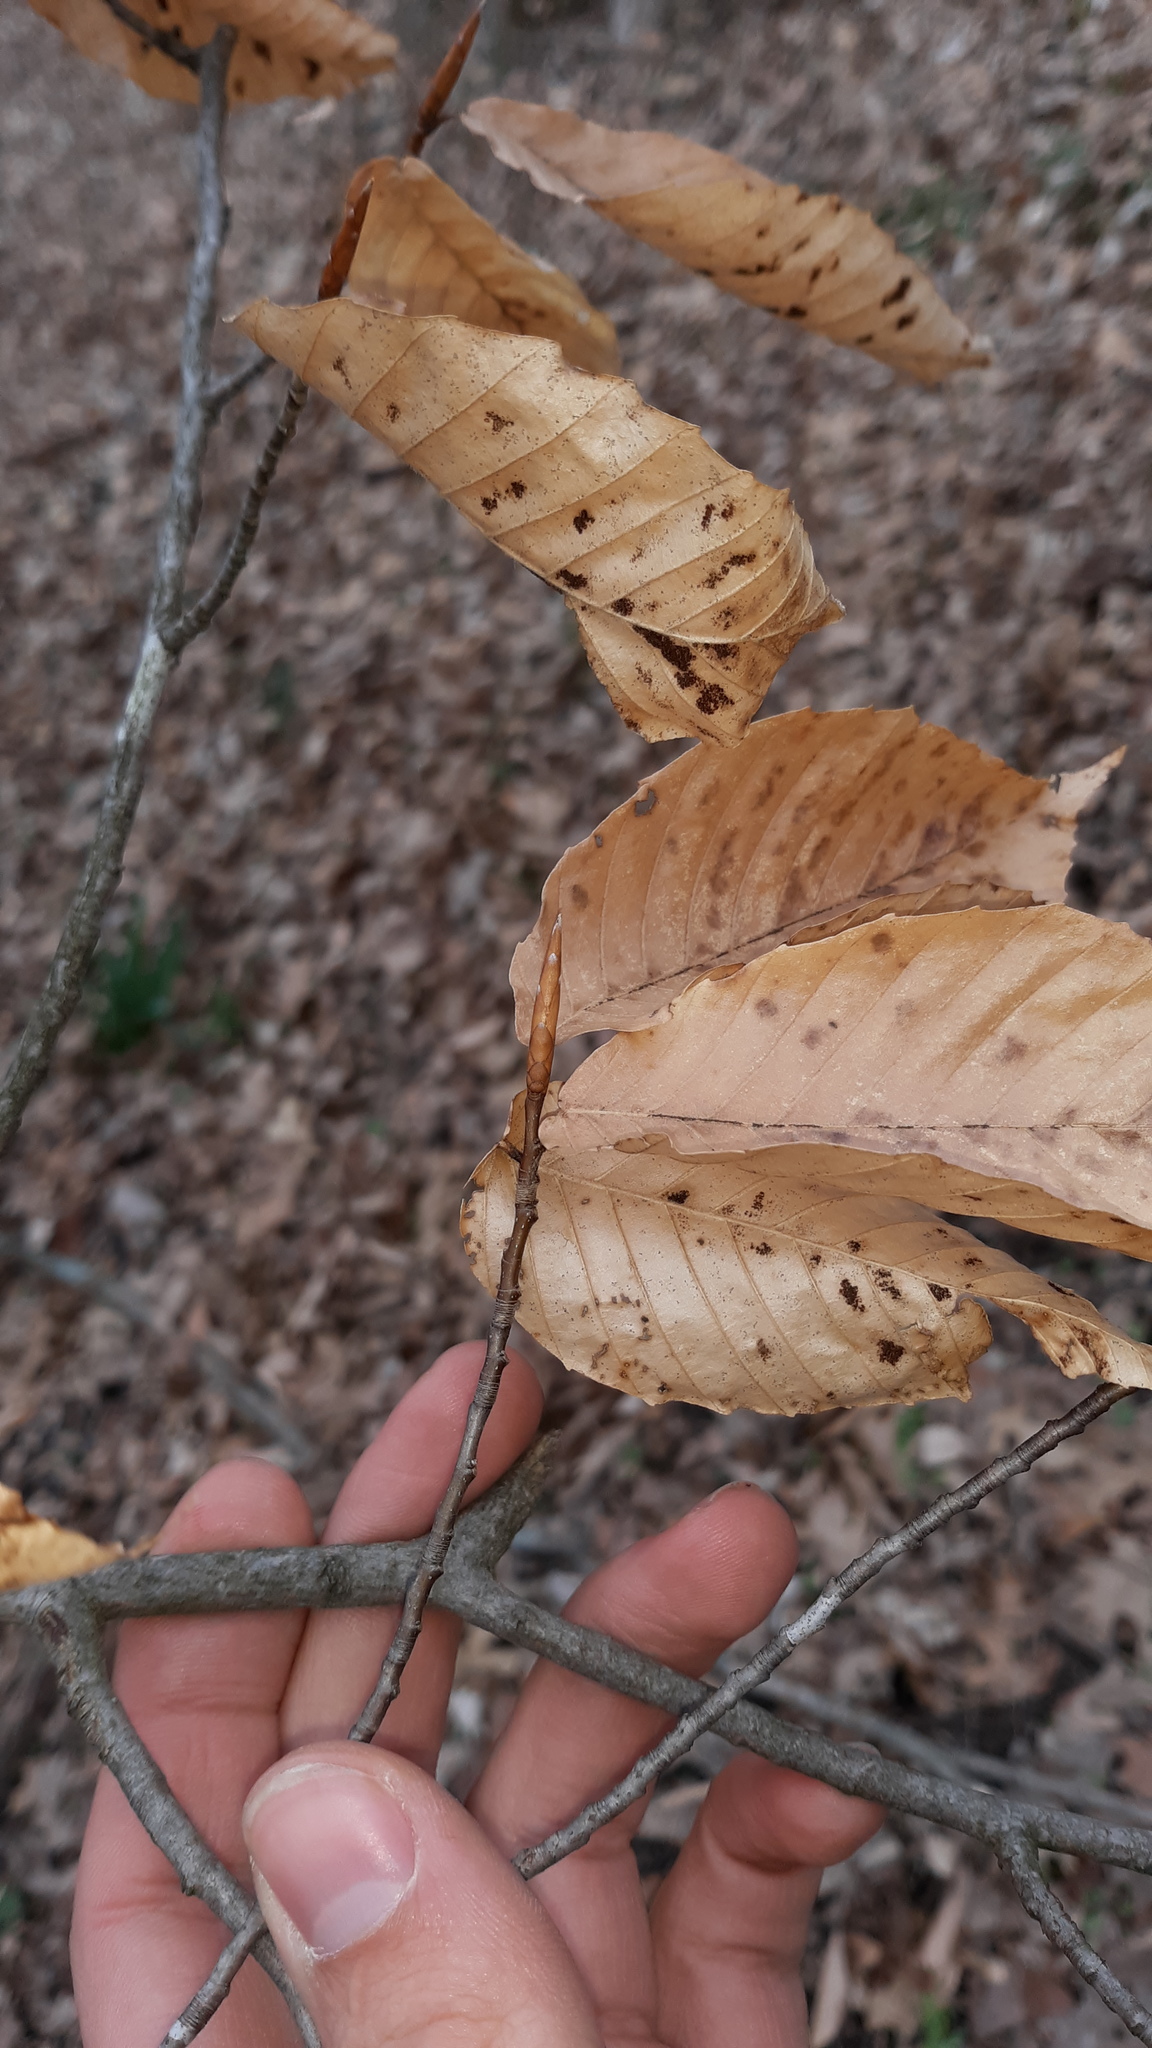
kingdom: Plantae
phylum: Tracheophyta
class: Magnoliopsida
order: Fagales
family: Fagaceae
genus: Fagus
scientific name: Fagus grandifolia
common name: American beech
